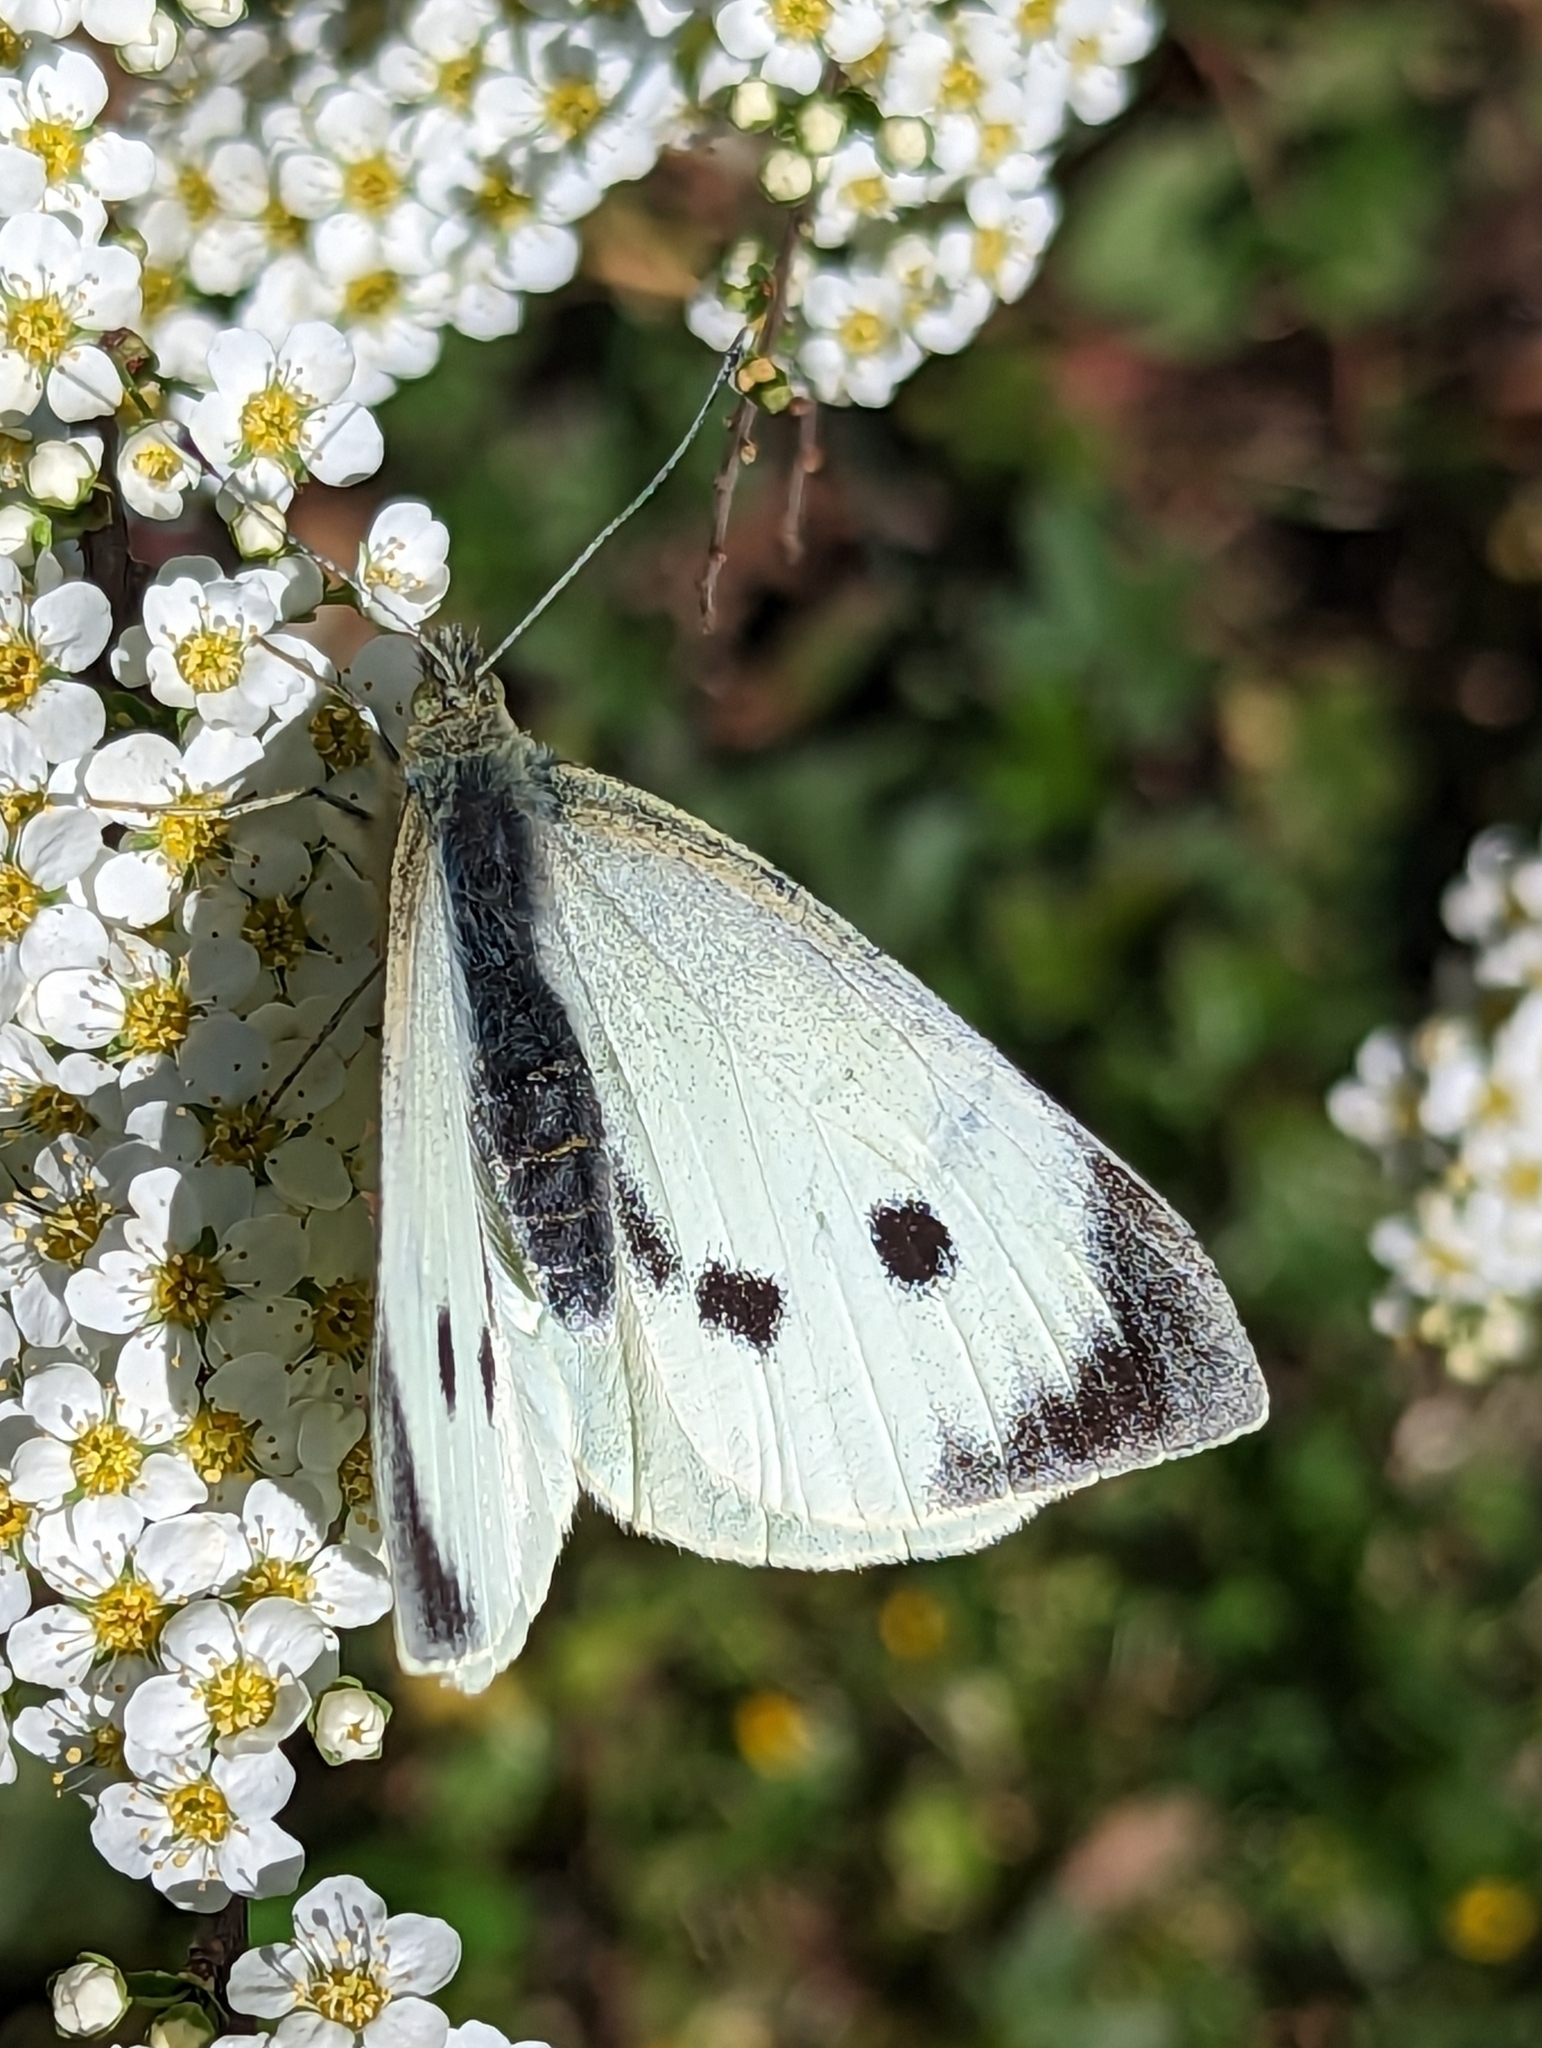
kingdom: Animalia
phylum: Arthropoda
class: Insecta
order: Lepidoptera
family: Pieridae
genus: Pieris
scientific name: Pieris brassicae
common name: Large white
